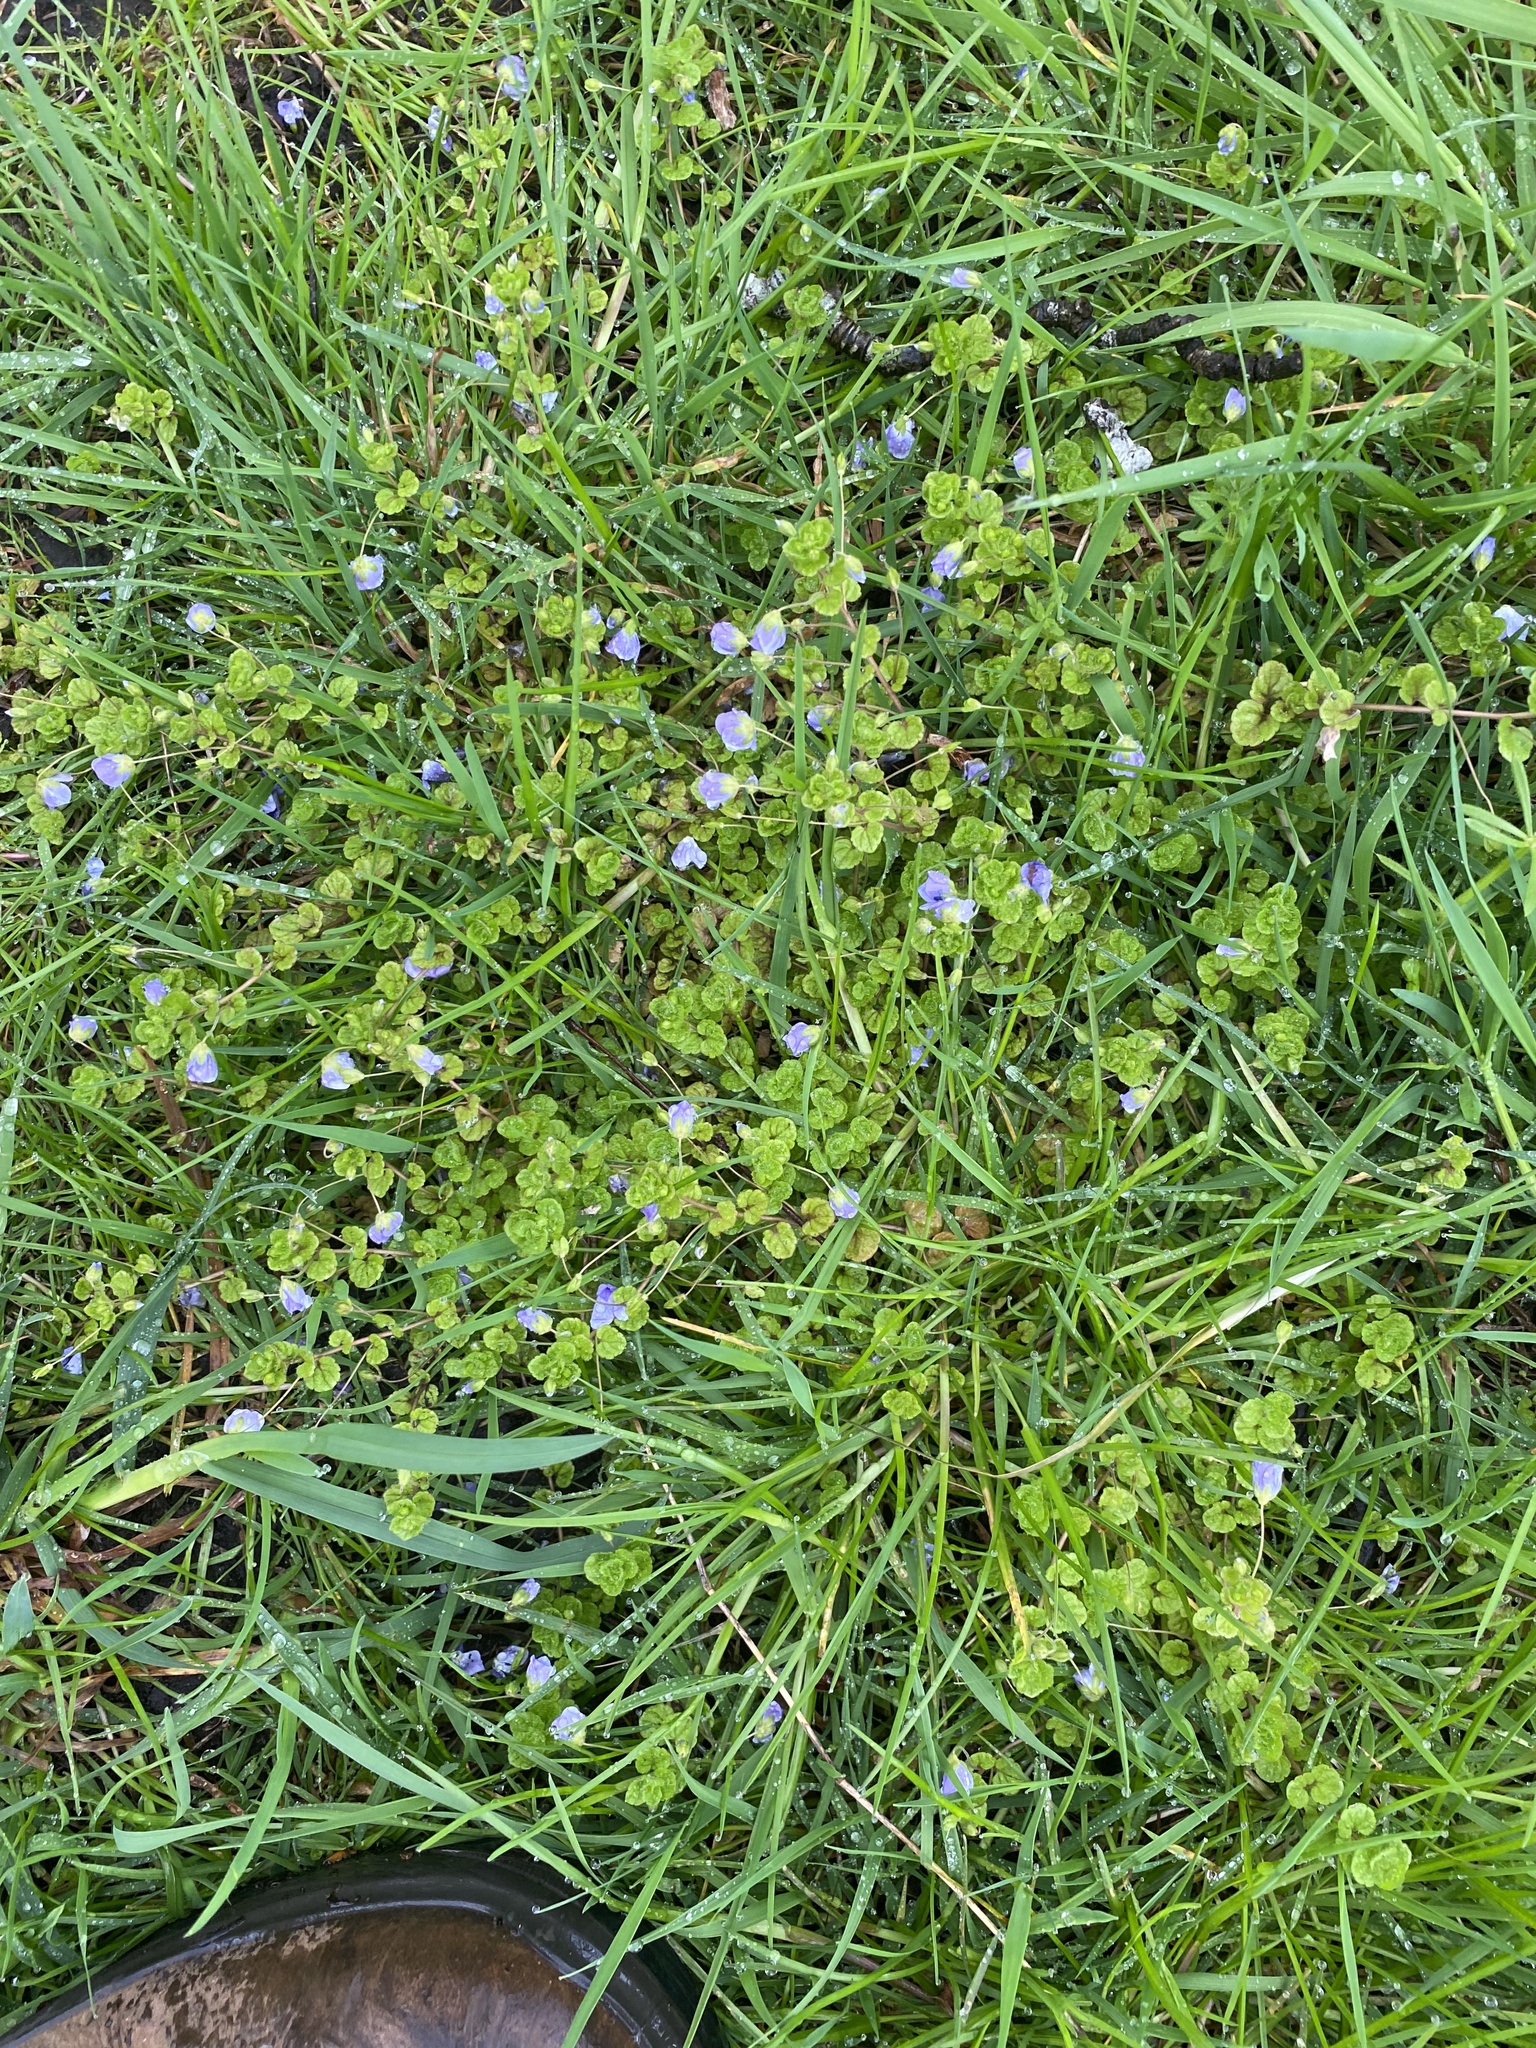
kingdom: Plantae
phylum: Tracheophyta
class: Magnoliopsida
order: Lamiales
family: Plantaginaceae
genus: Veronica
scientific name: Veronica filiformis
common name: Slender speedwell
